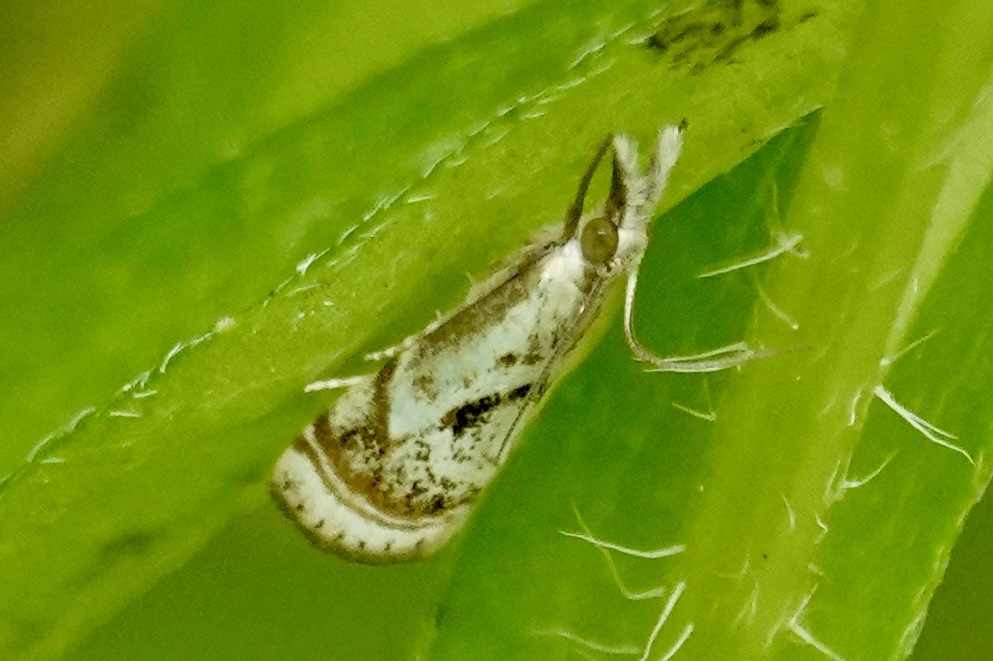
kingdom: Animalia
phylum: Arthropoda
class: Insecta
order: Lepidoptera
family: Crambidae
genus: Microcrambus
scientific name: Microcrambus elegans
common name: Elegant grass-veneer
